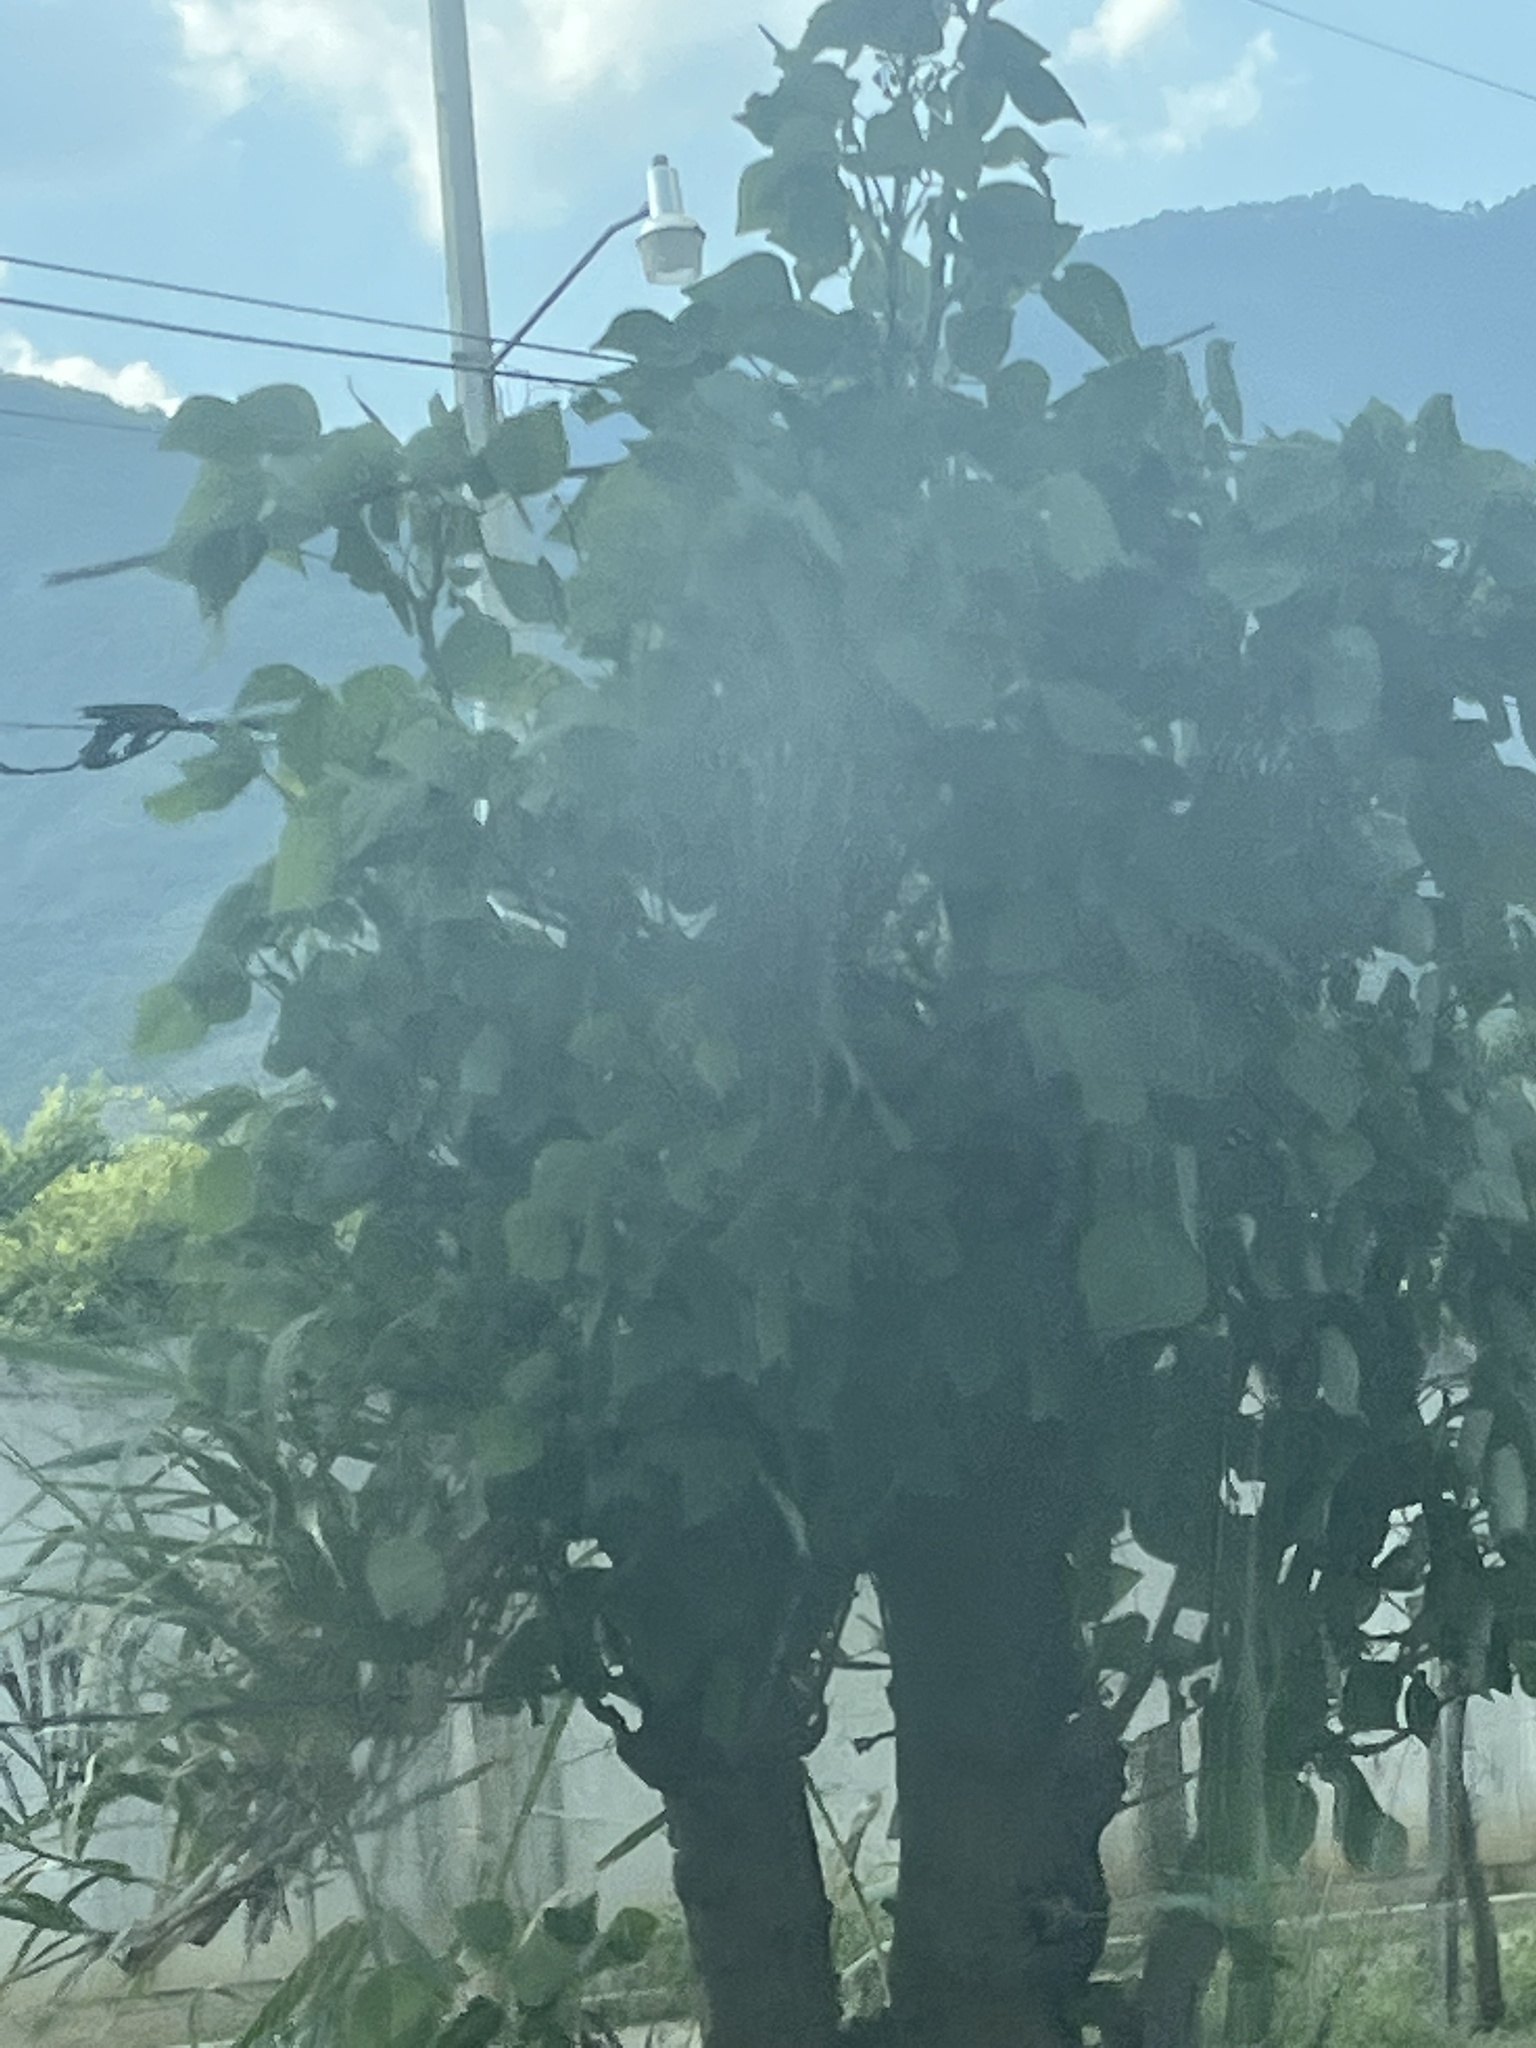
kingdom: Plantae
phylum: Tracheophyta
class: Magnoliopsida
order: Fabales
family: Fabaceae
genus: Erythrina
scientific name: Erythrina americana
